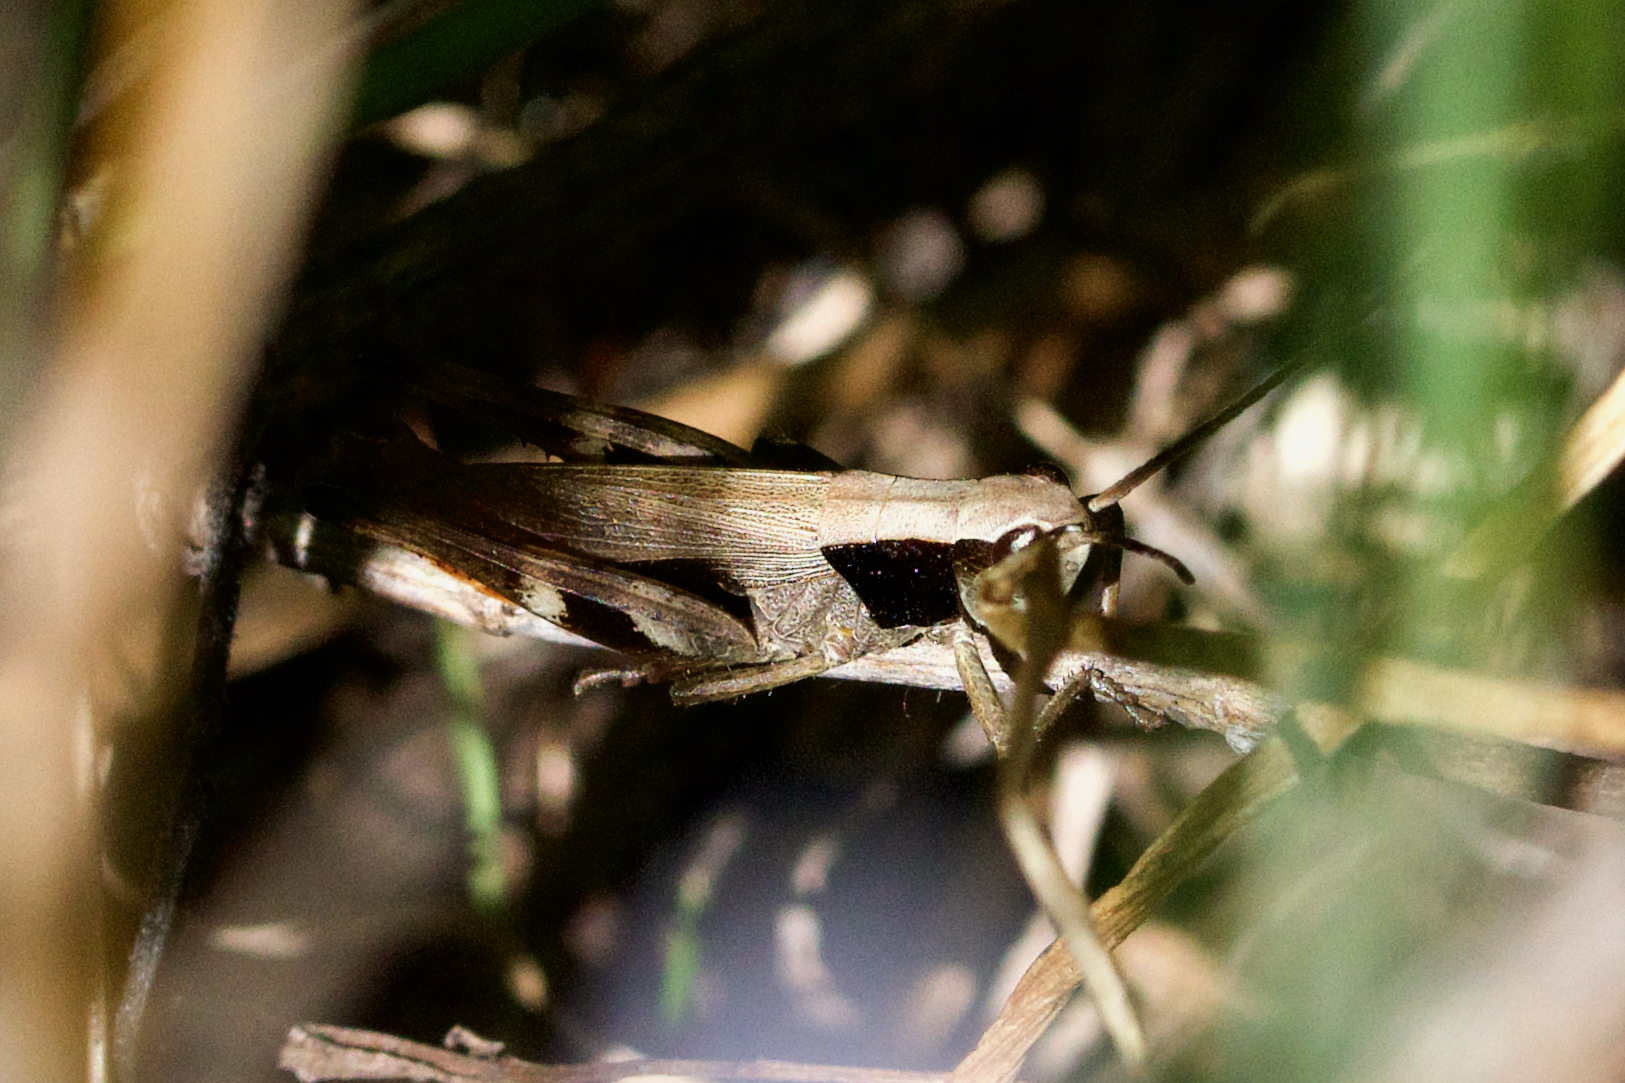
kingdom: Animalia
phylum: Arthropoda
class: Insecta
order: Orthoptera
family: Acrididae
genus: Chloealtis
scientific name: Chloealtis conspersa
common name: Sprinkled broad-winged grasshopper
